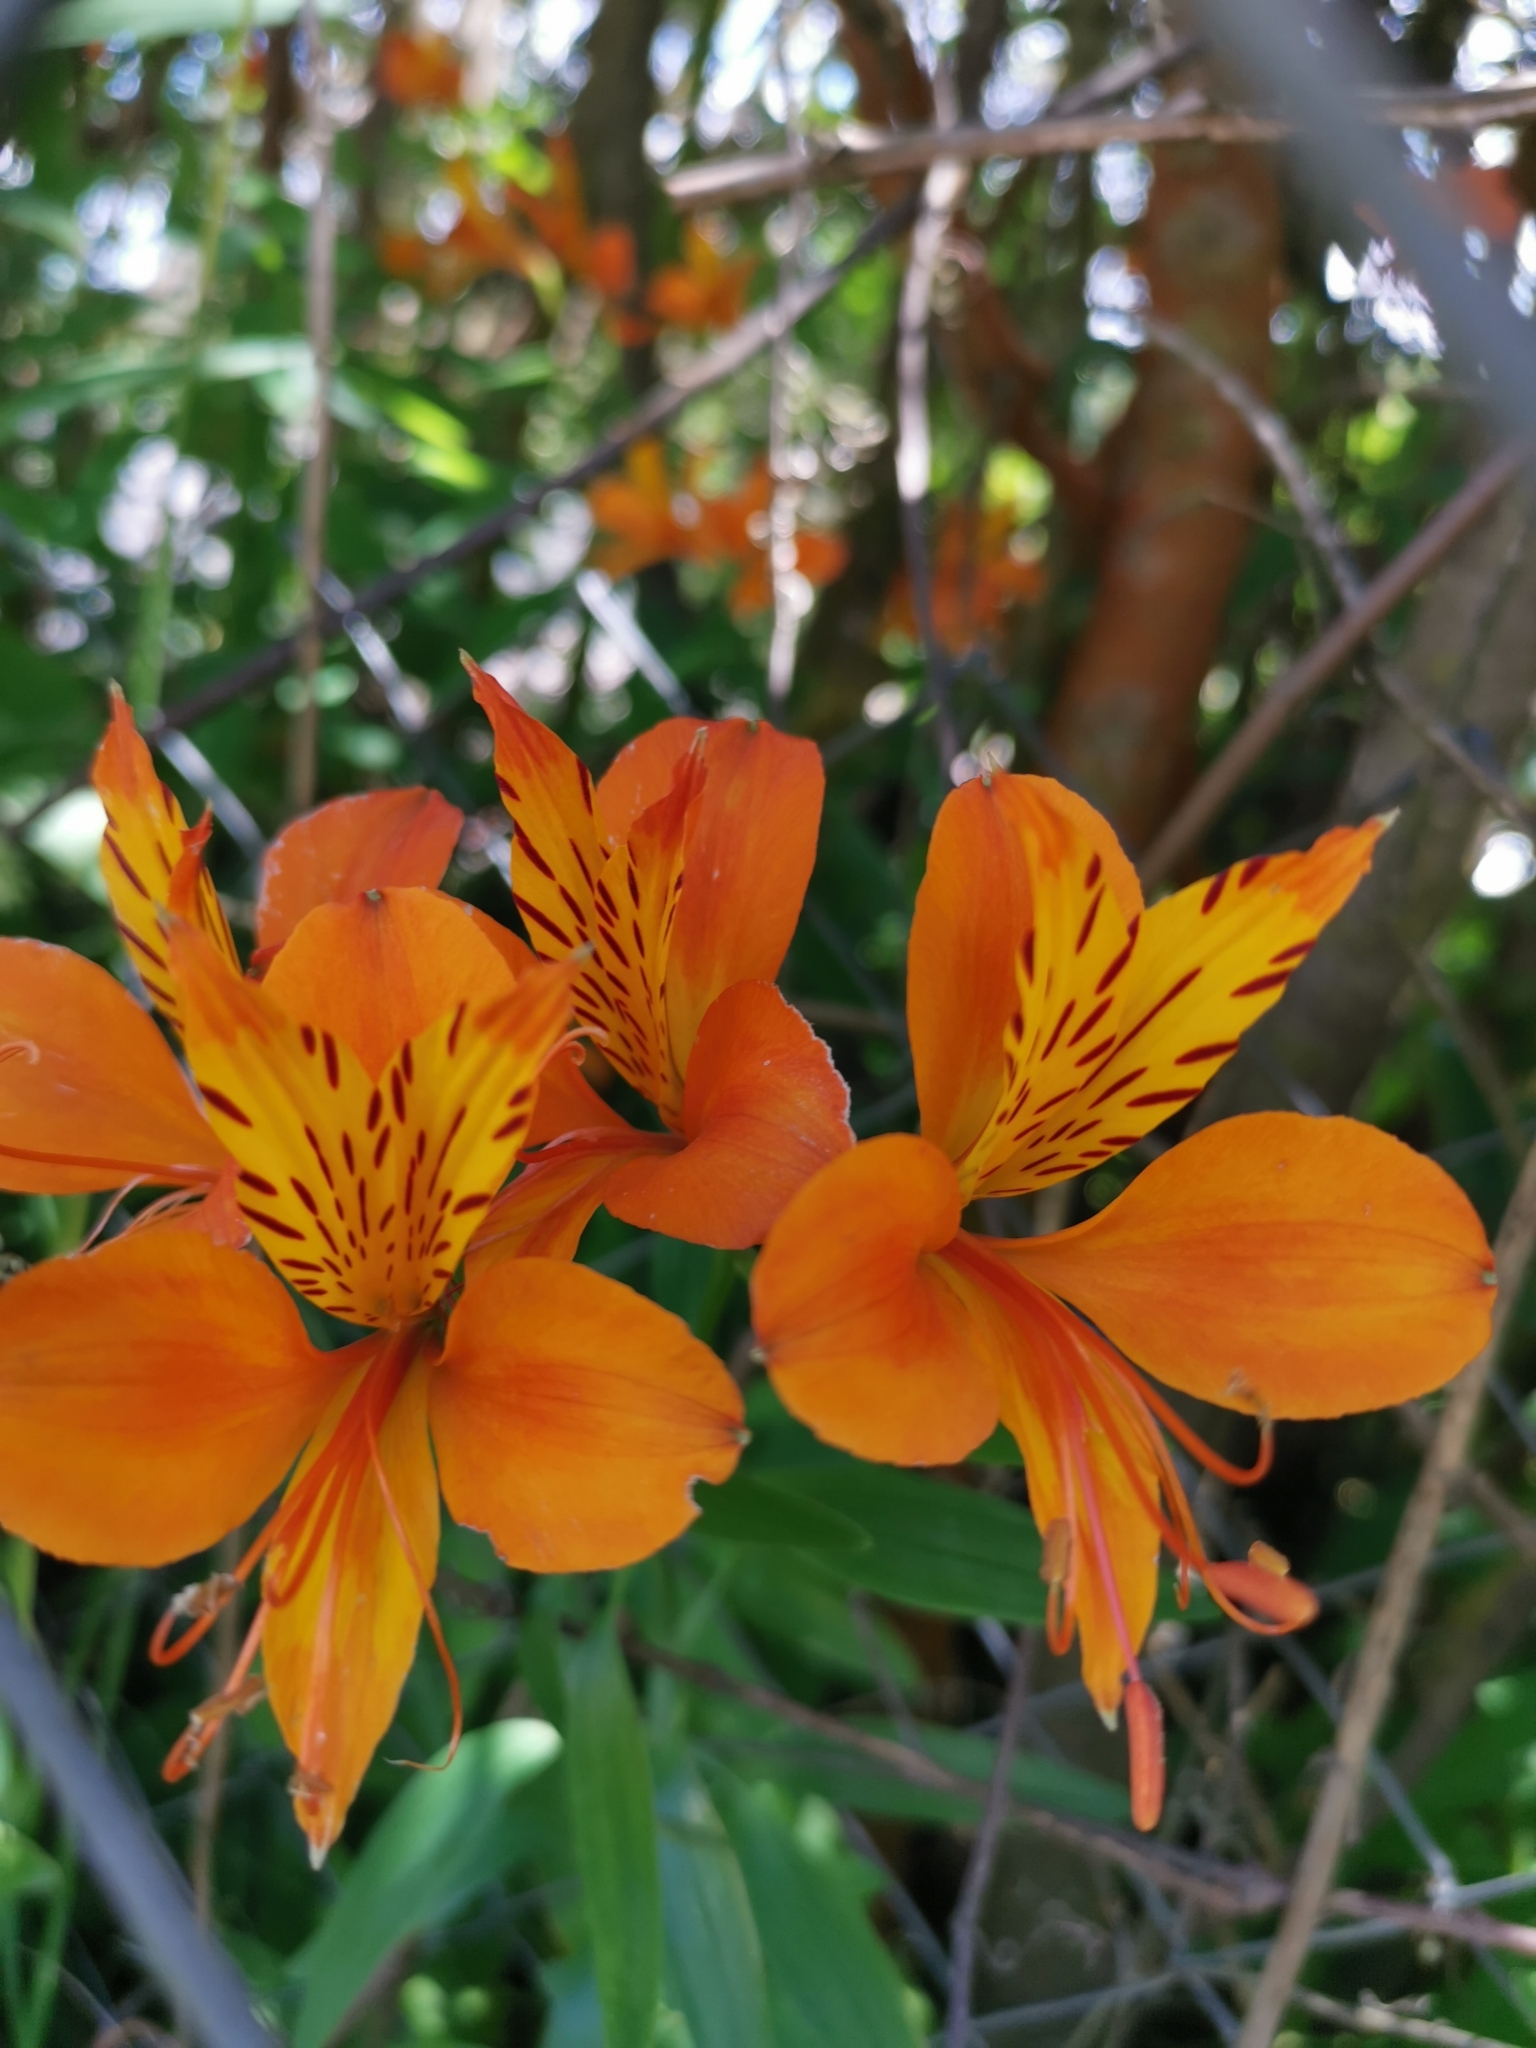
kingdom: Plantae
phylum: Tracheophyta
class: Liliopsida
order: Liliales
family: Alstroemeriaceae
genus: Alstroemeria
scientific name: Alstroemeria aurea
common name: Peruvian lily
